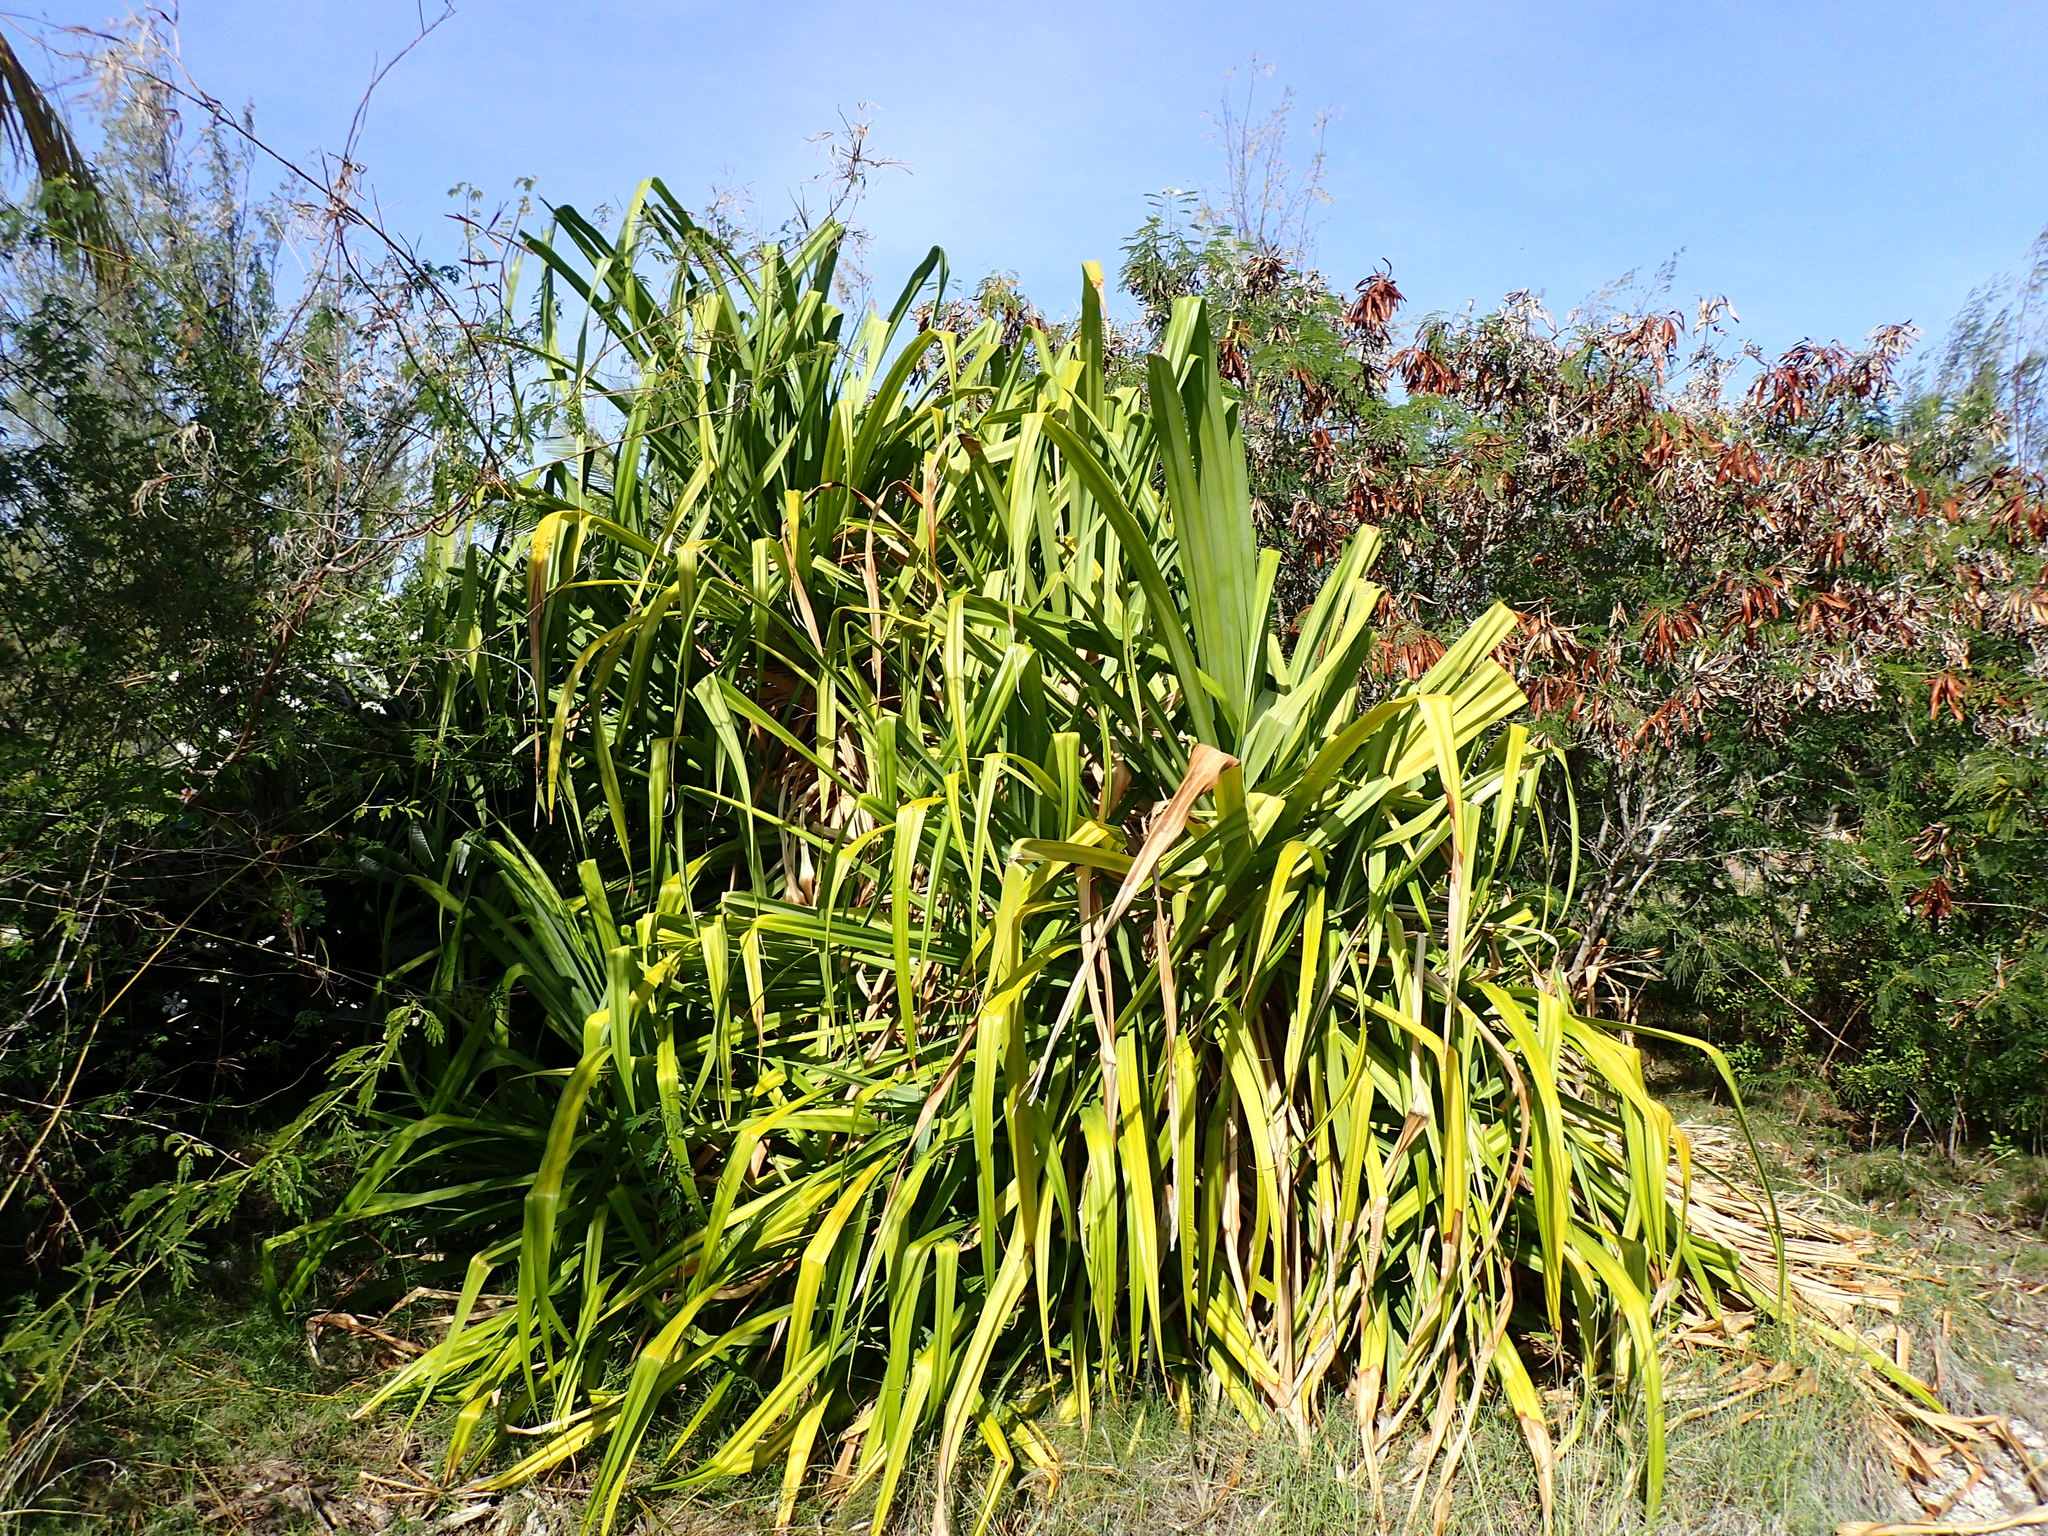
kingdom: Plantae
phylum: Tracheophyta
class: Liliopsida
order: Pandanales
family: Pandanaceae
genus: Pandanus
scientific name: Pandanus tectorius
